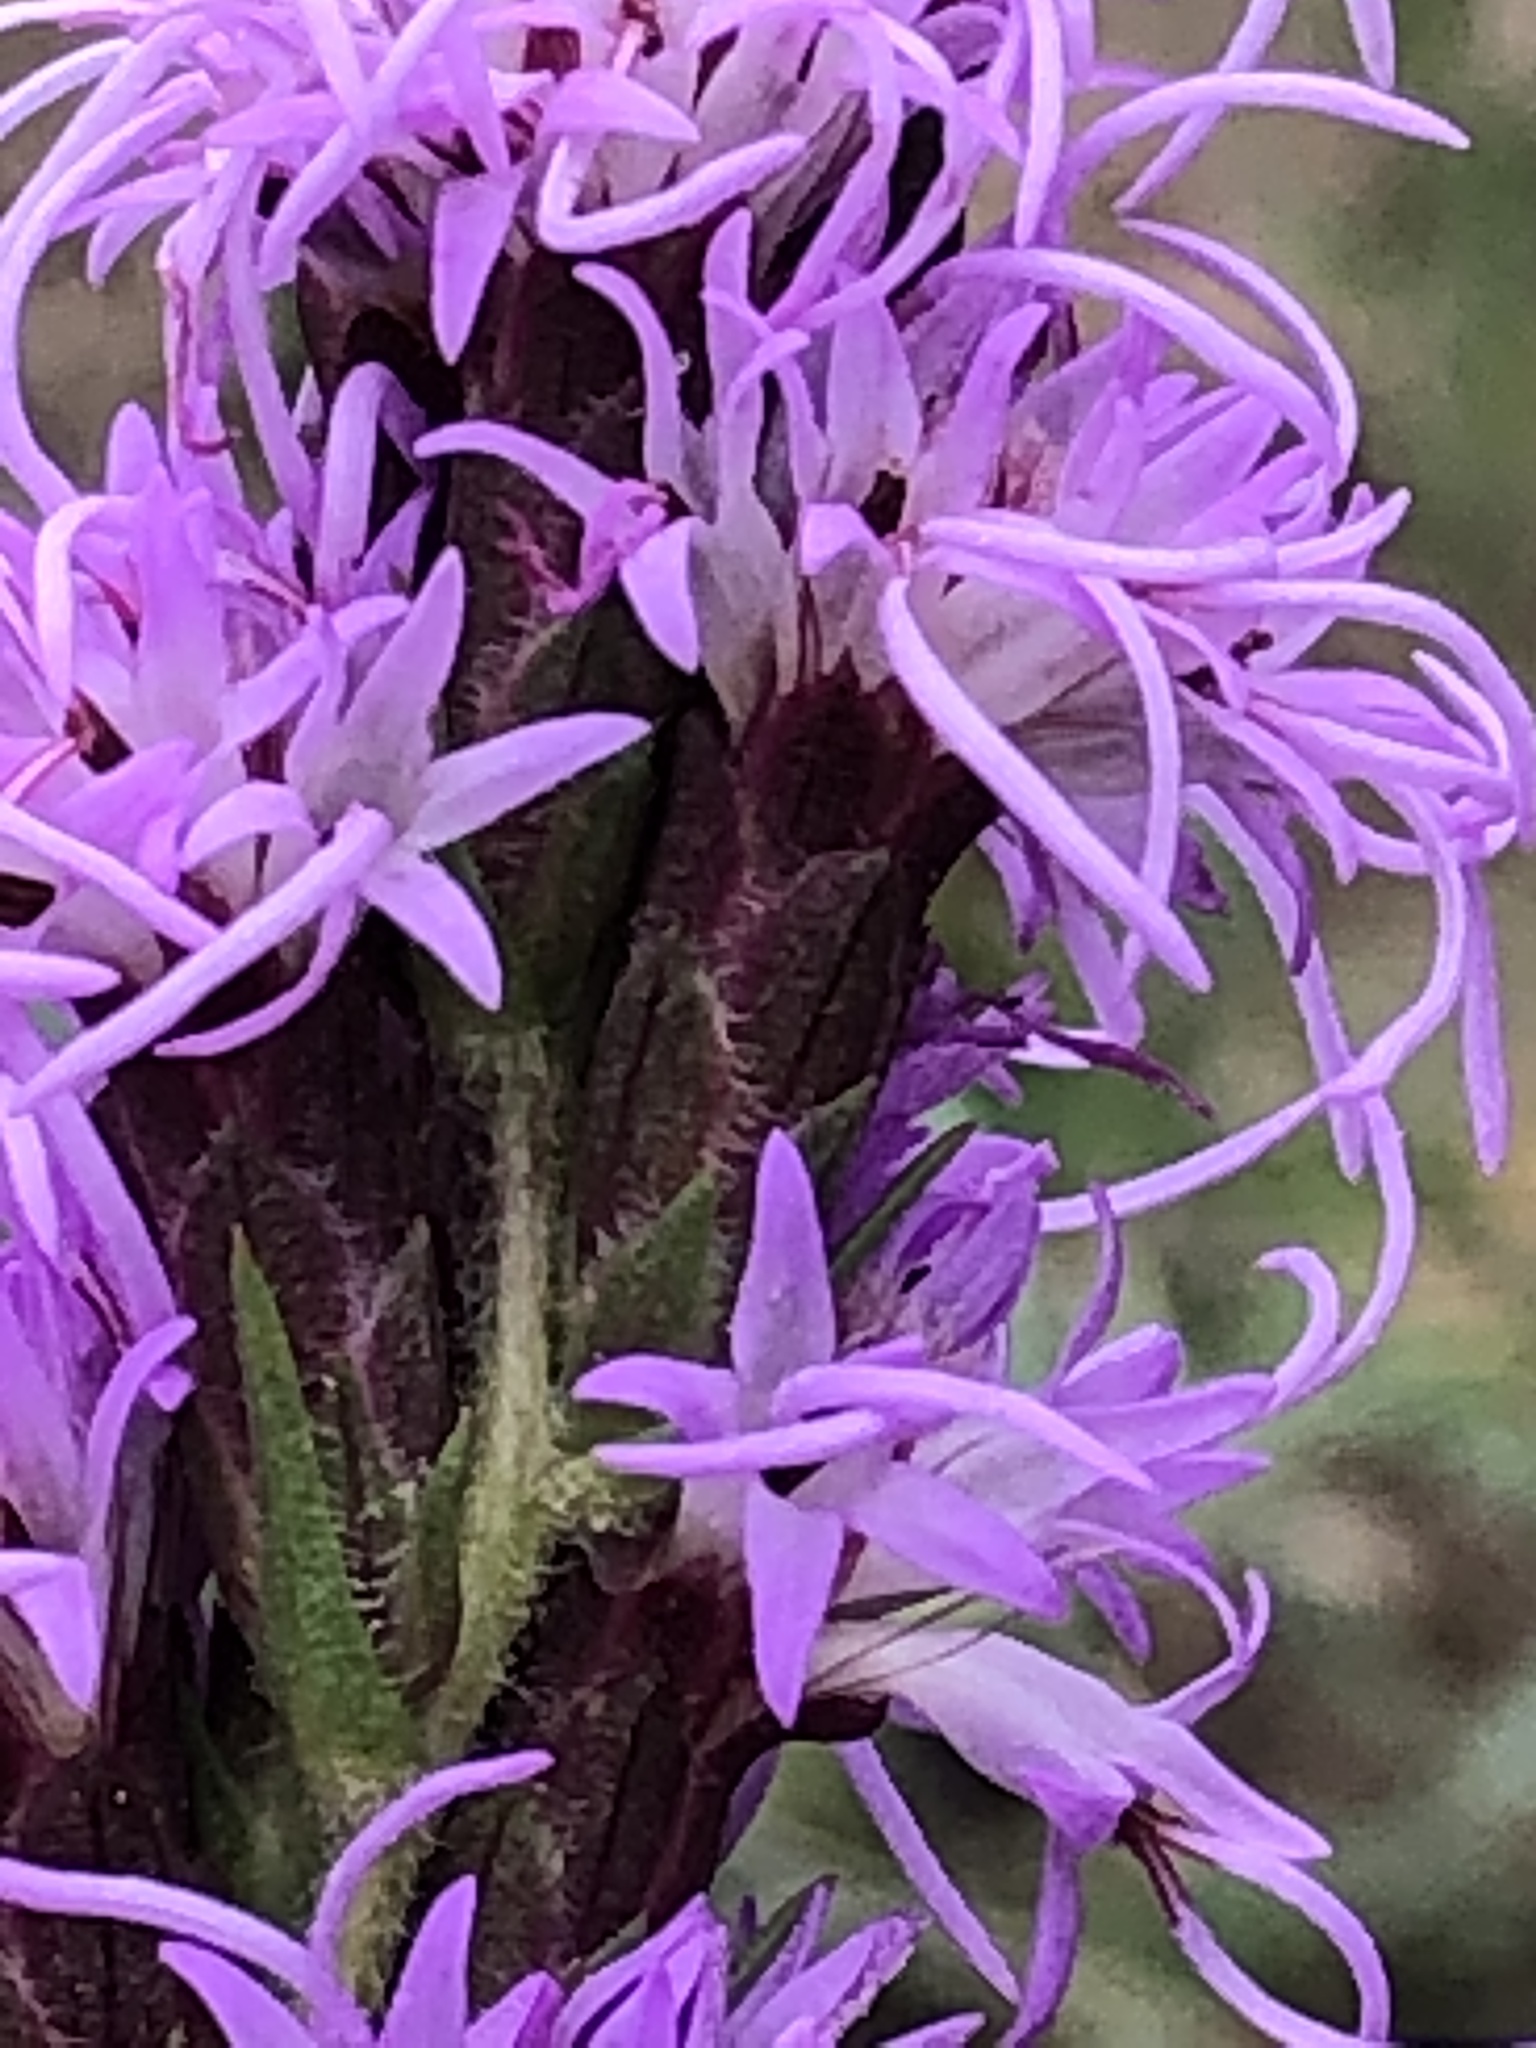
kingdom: Plantae
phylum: Tracheophyta
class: Magnoliopsida
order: Asterales
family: Asteraceae
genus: Liatris
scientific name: Liatris punctata
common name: Dotted gayfeather
